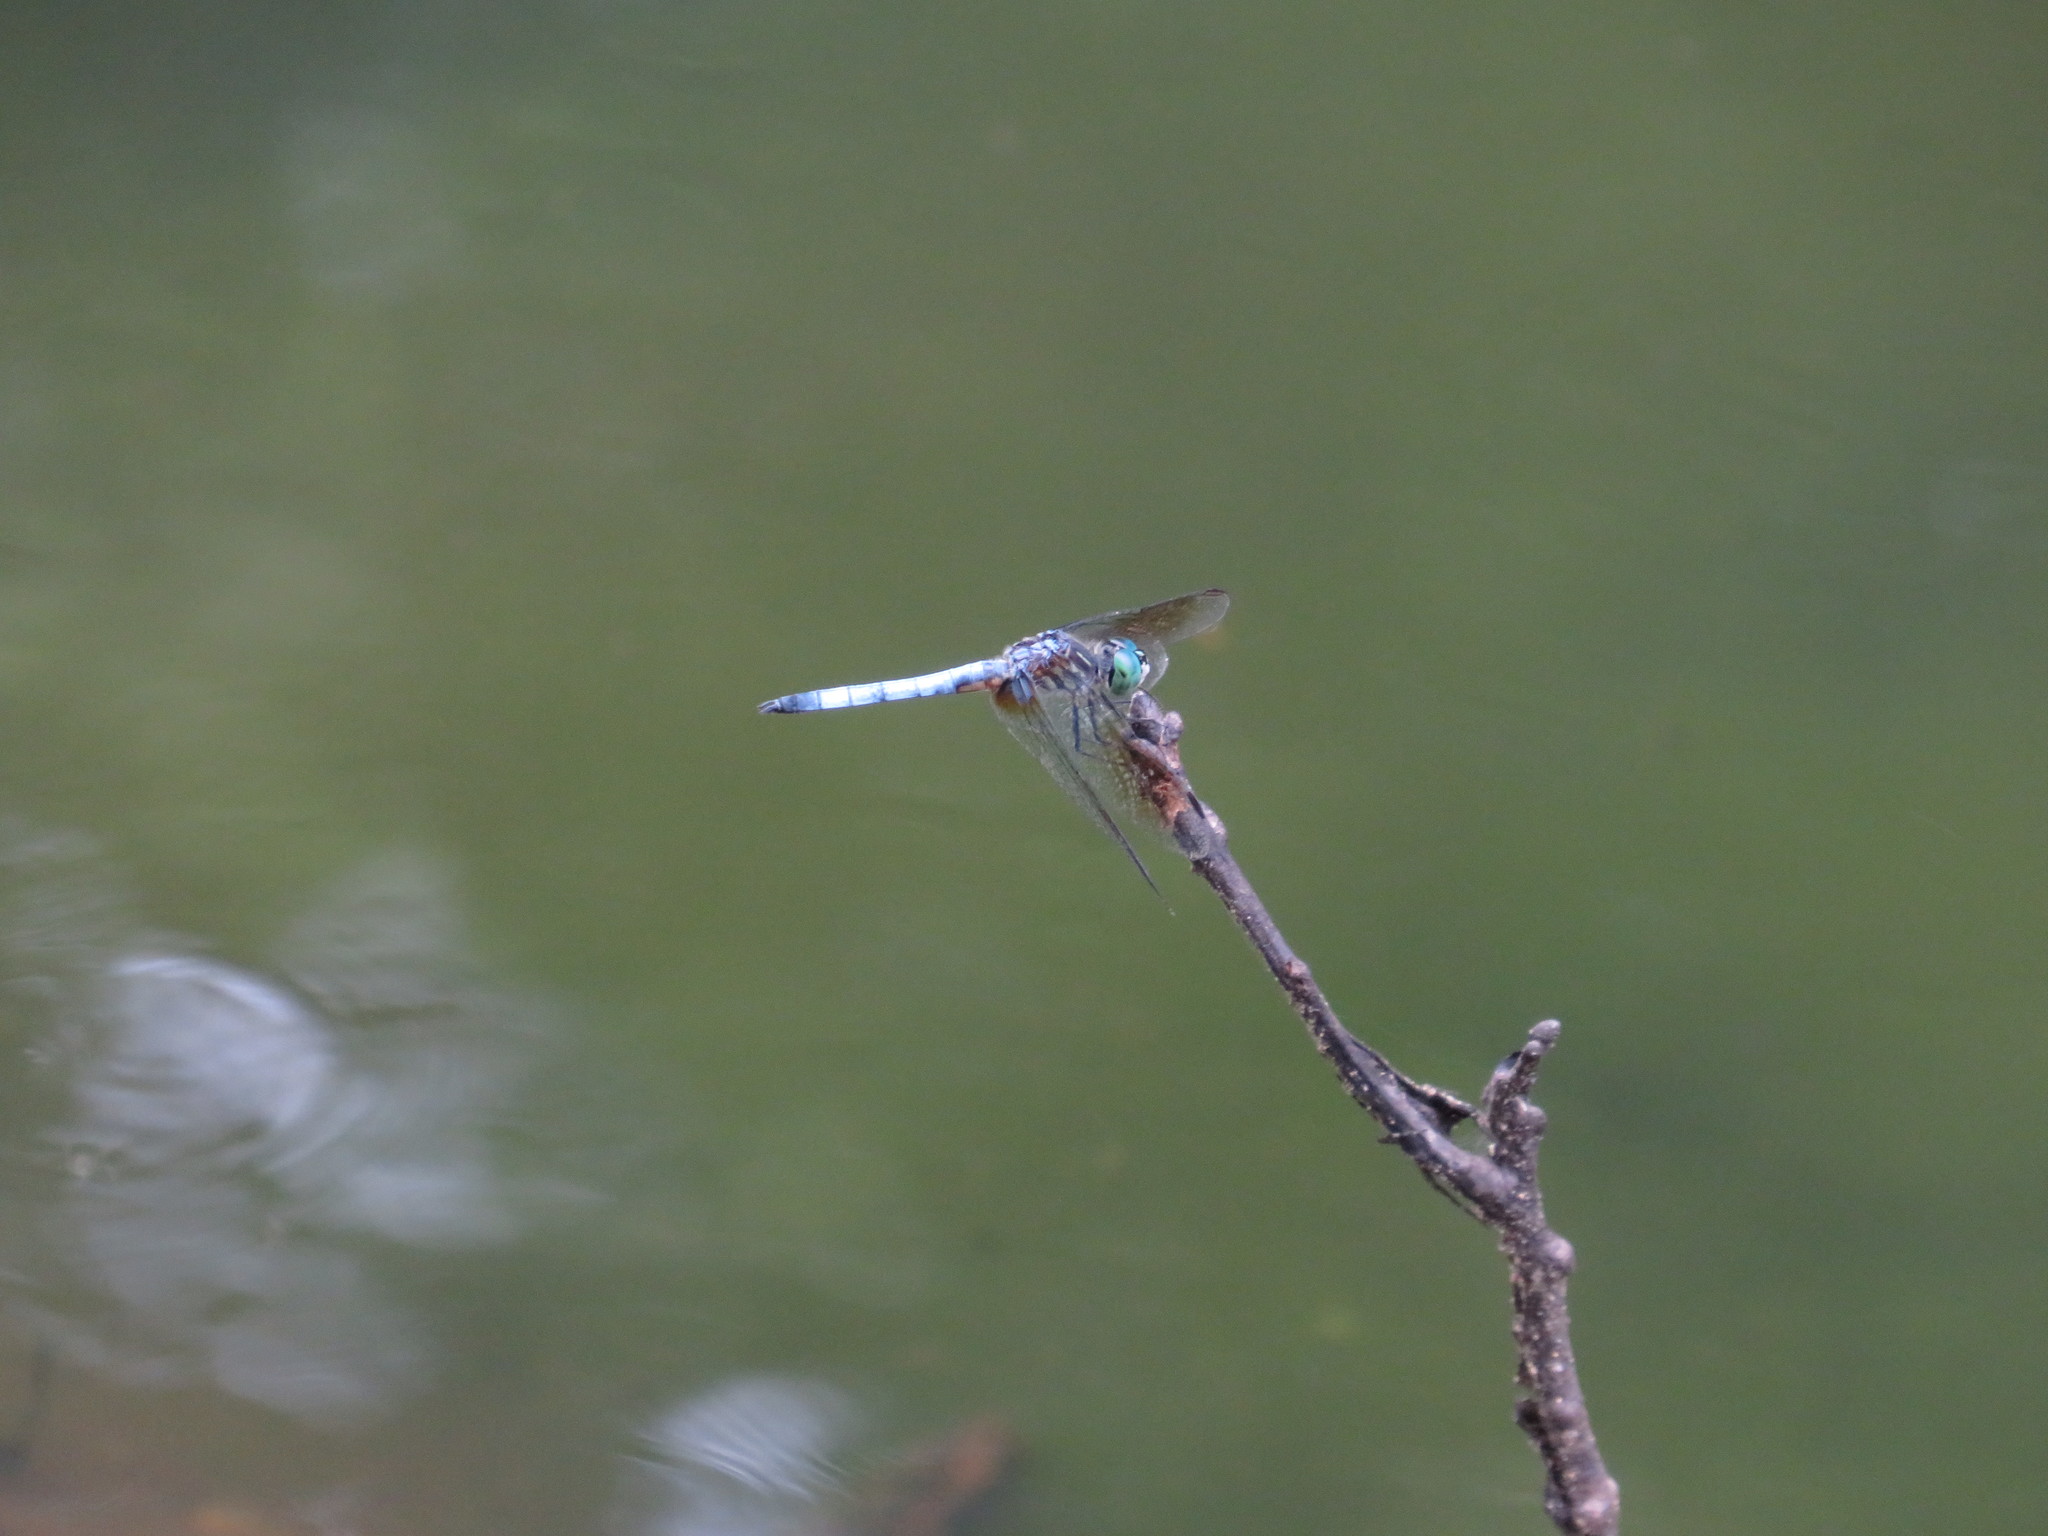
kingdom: Animalia
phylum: Arthropoda
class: Insecta
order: Odonata
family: Libellulidae
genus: Pachydiplax
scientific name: Pachydiplax longipennis
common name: Blue dasher
